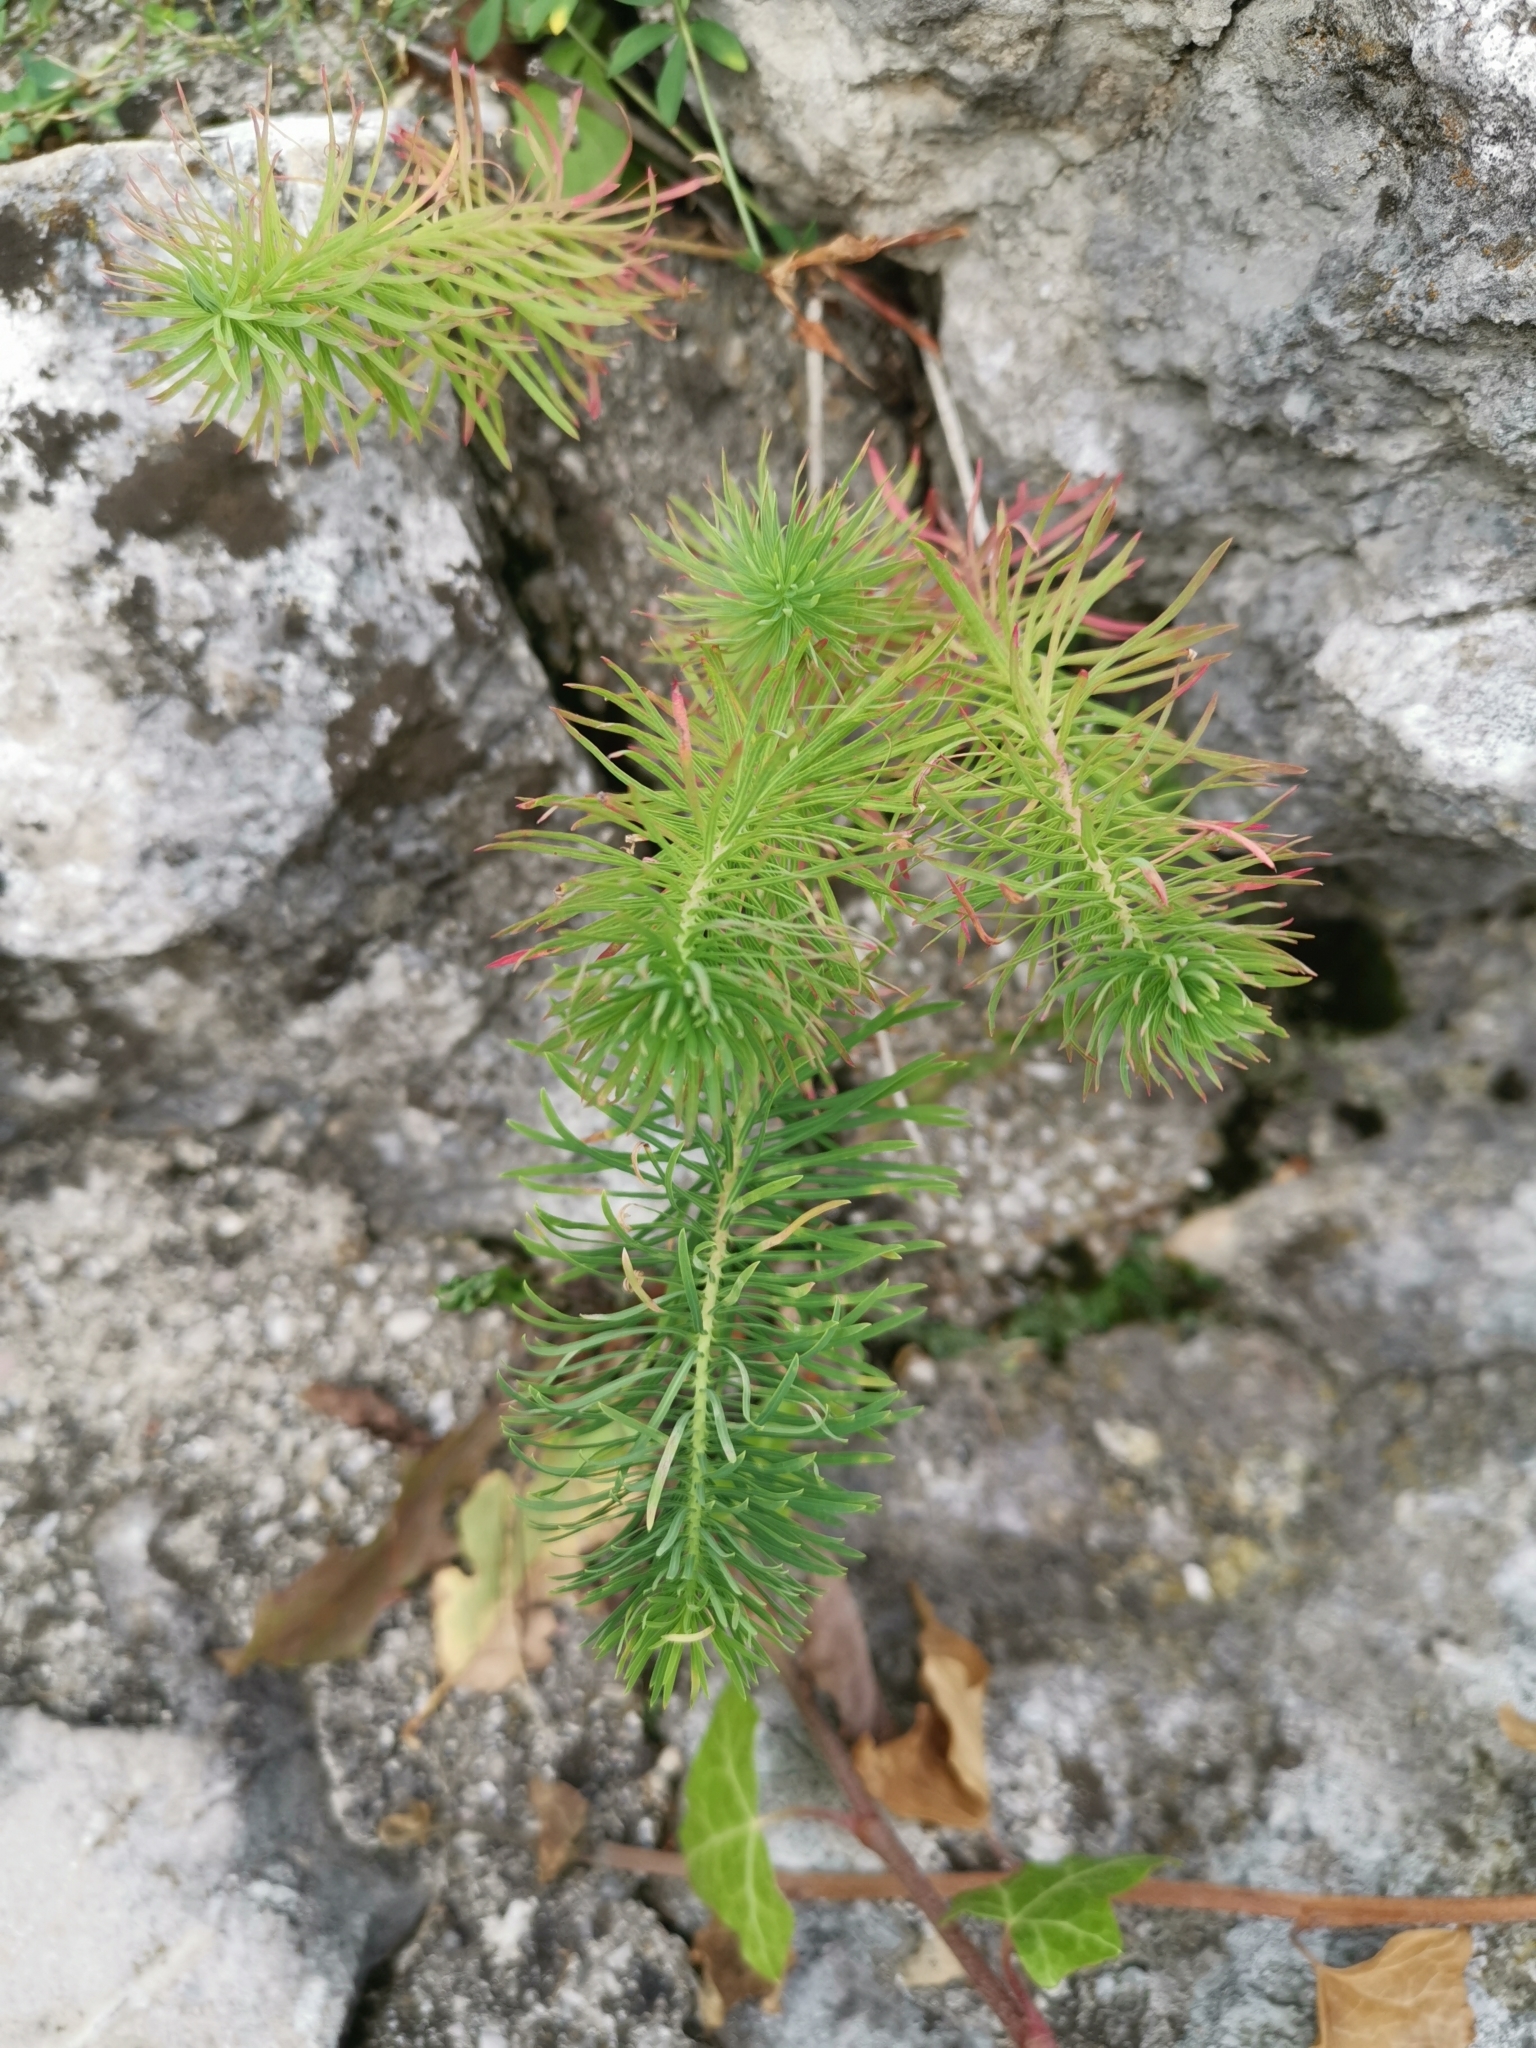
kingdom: Plantae
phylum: Tracheophyta
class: Magnoliopsida
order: Malpighiales
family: Euphorbiaceae
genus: Euphorbia
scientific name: Euphorbia cyparissias
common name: Cypress spurge
